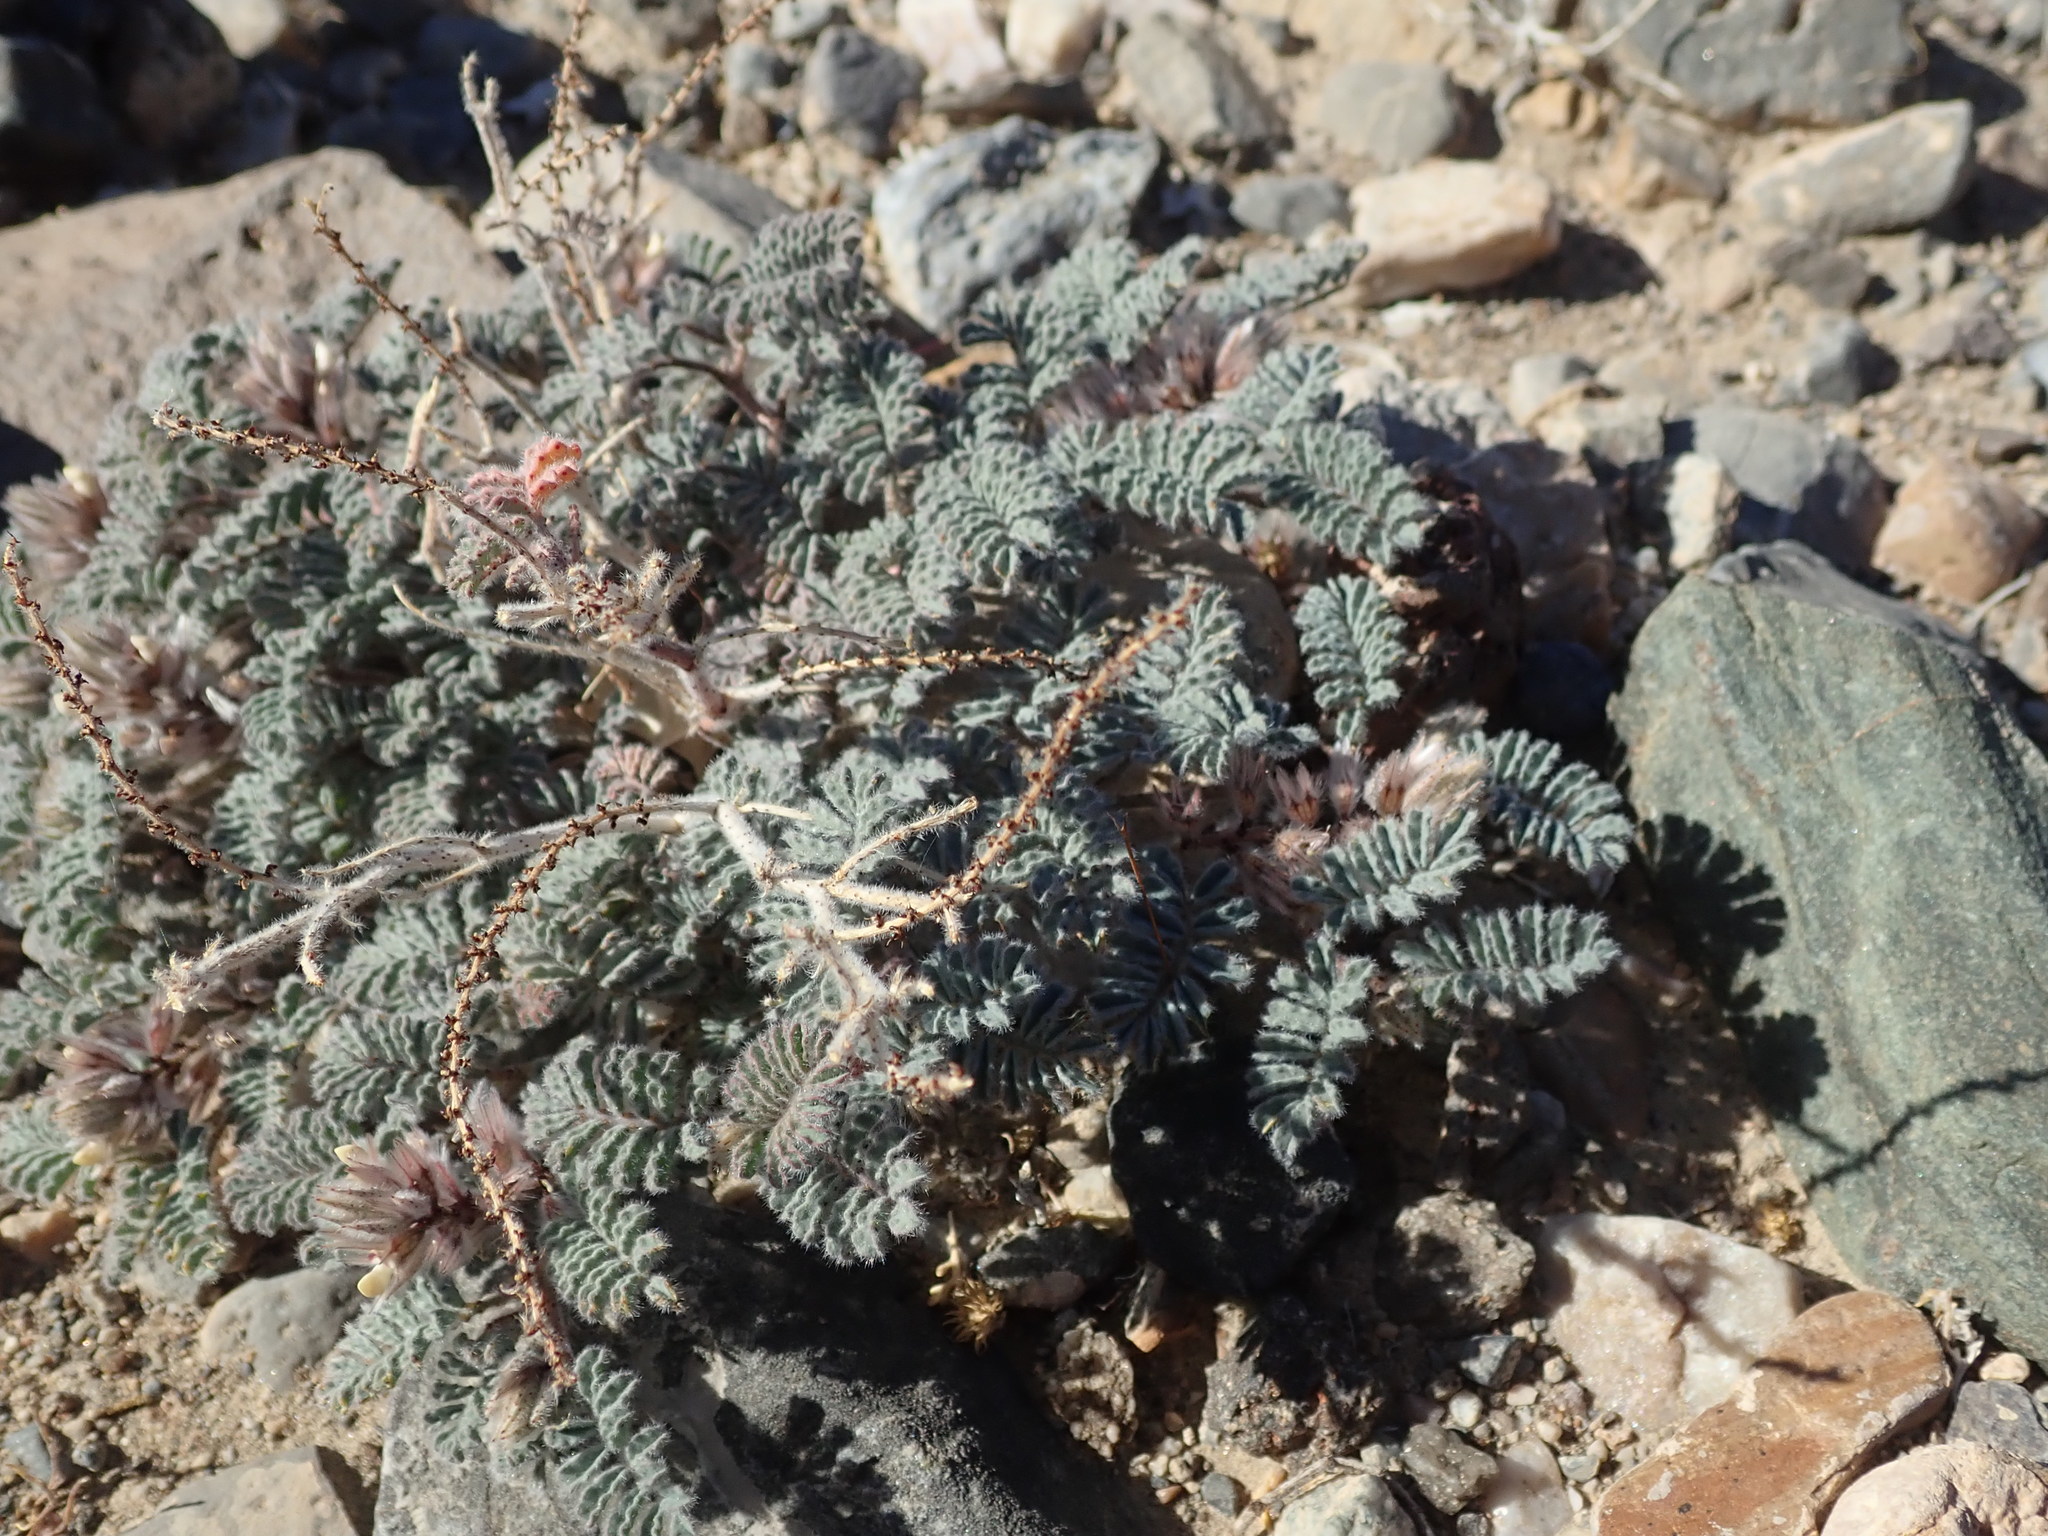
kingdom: Plantae
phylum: Tracheophyta
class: Magnoliopsida
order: Fabales
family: Fabaceae
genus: Dalea
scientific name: Dalea mollissima
